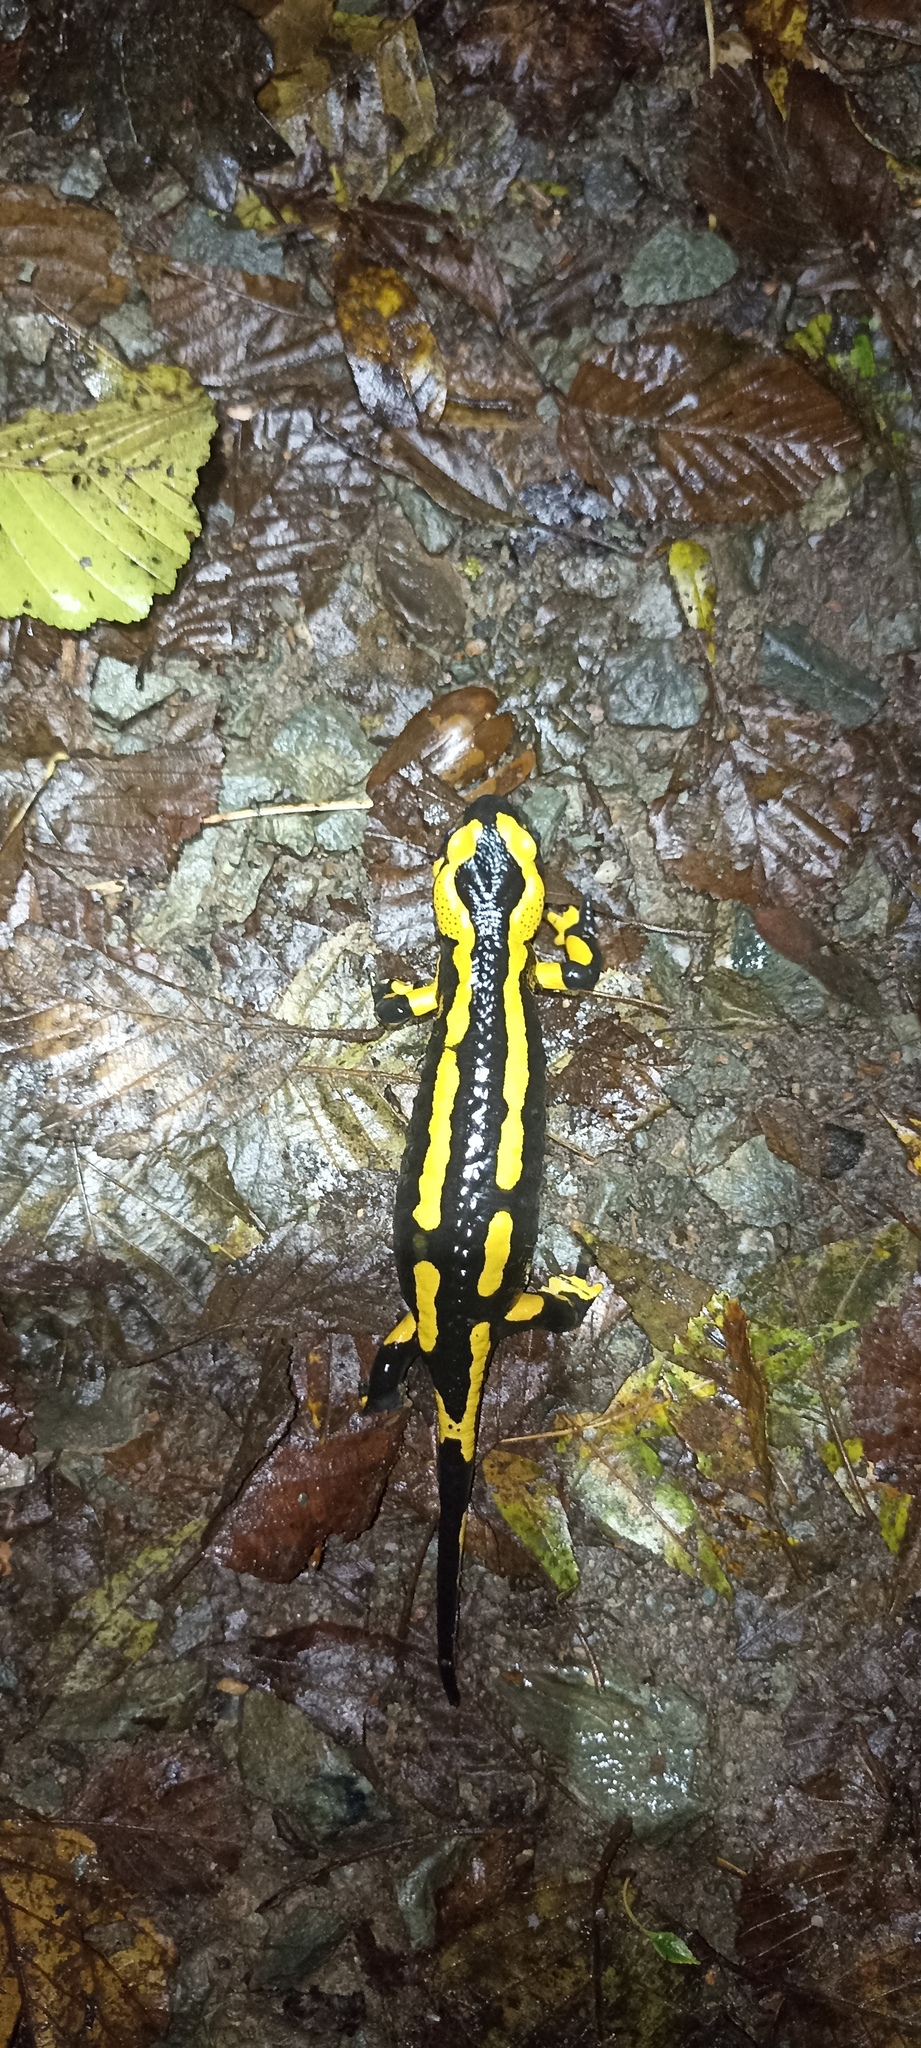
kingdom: Animalia
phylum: Chordata
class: Amphibia
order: Caudata
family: Salamandridae
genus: Salamandra
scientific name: Salamandra salamandra
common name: Fire salamander
